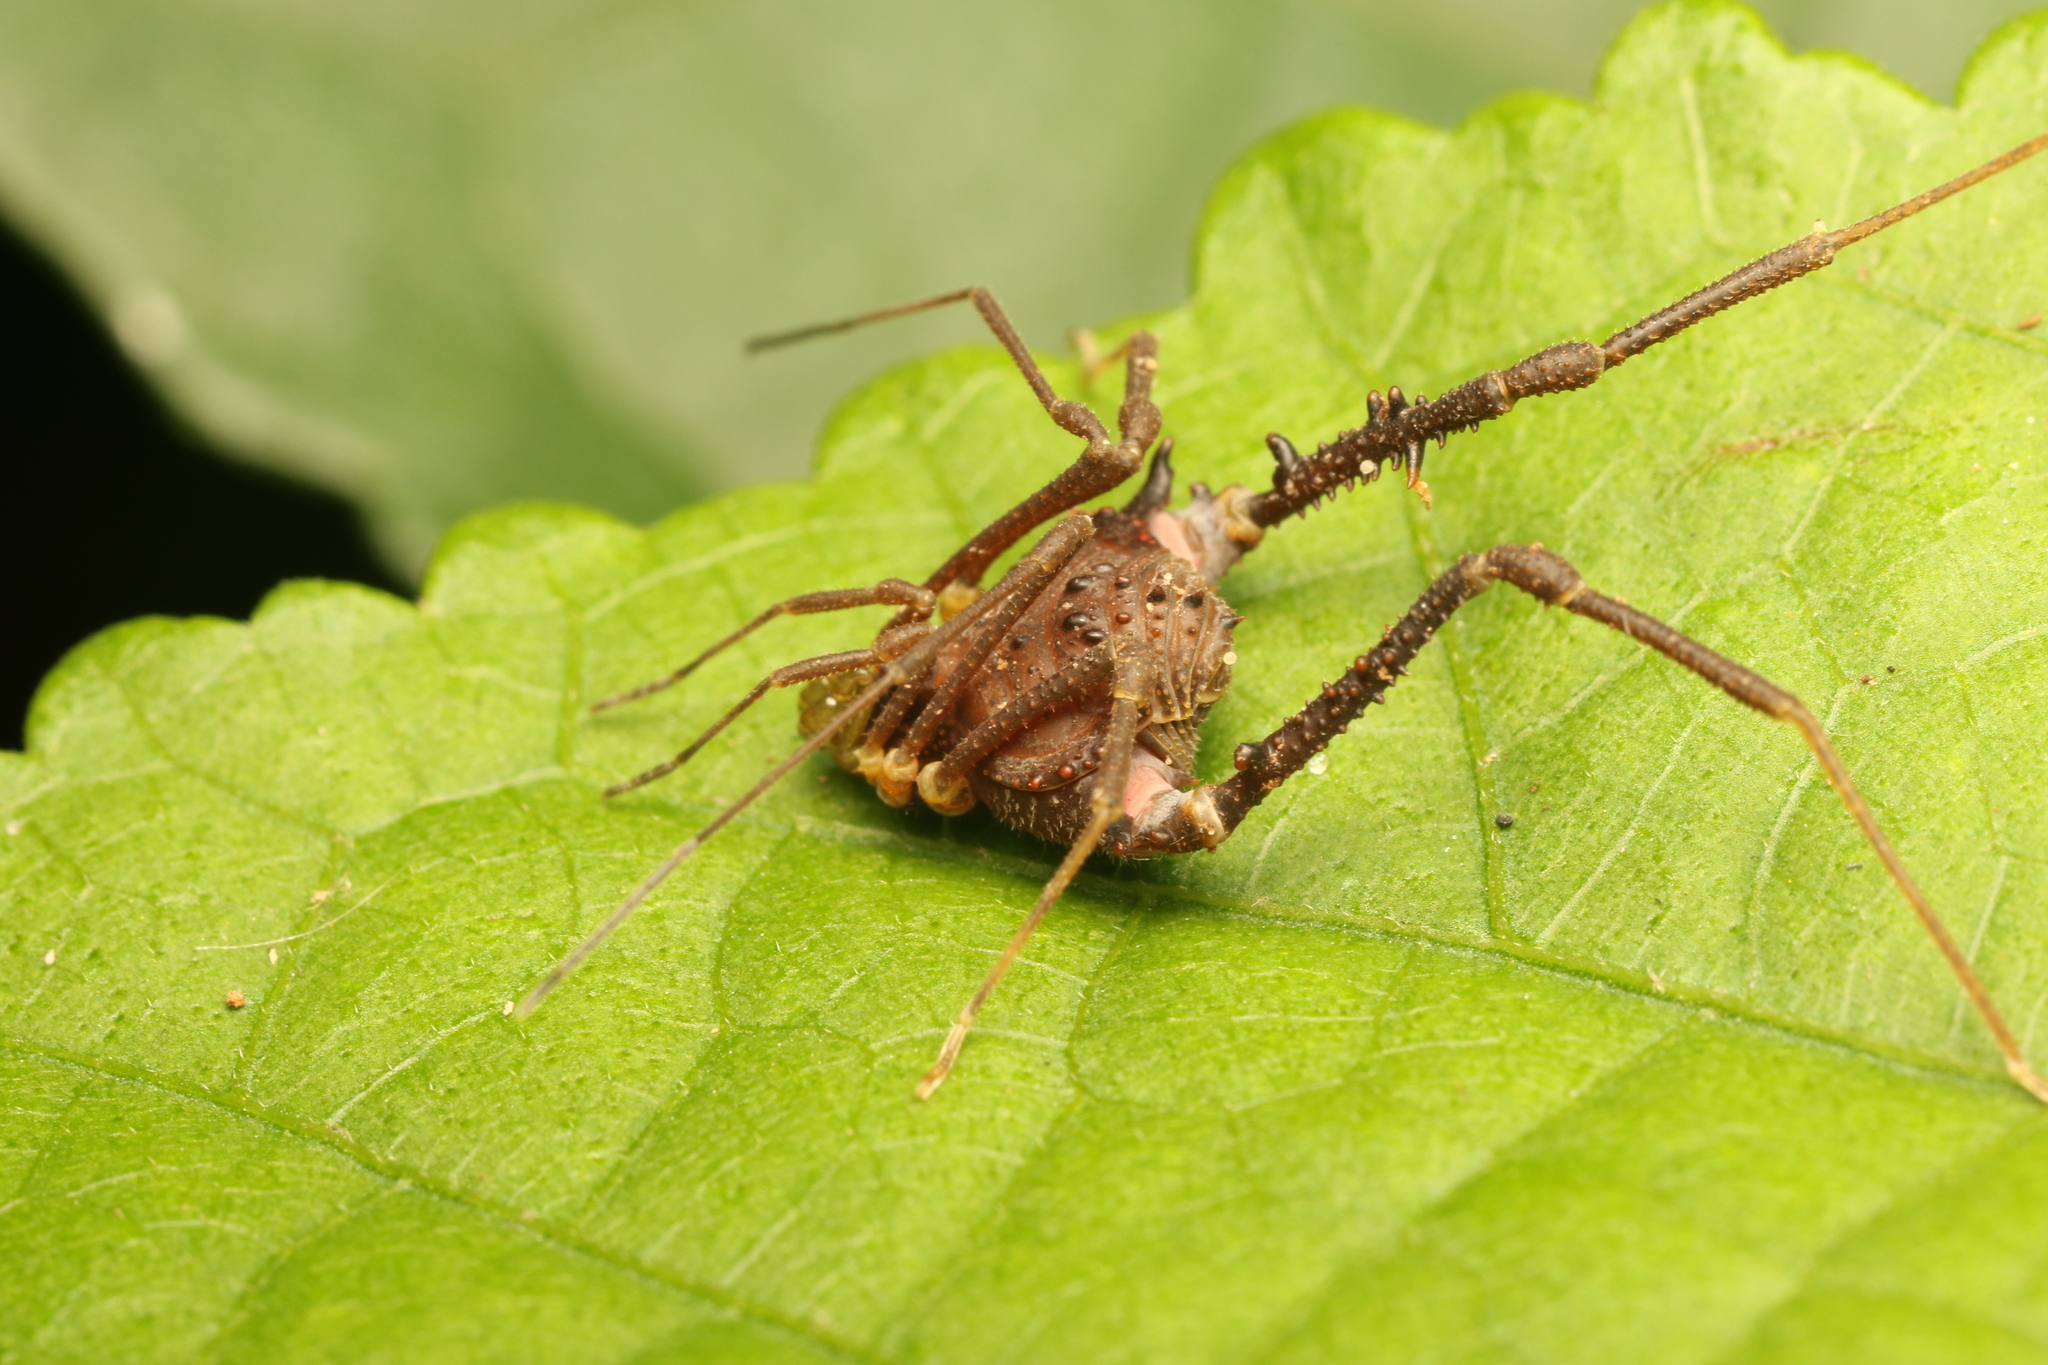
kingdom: Animalia
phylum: Arthropoda
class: Arachnida
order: Opiliones
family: Gonyleptidae
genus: Mischonyx
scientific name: Mischonyx squalidus
